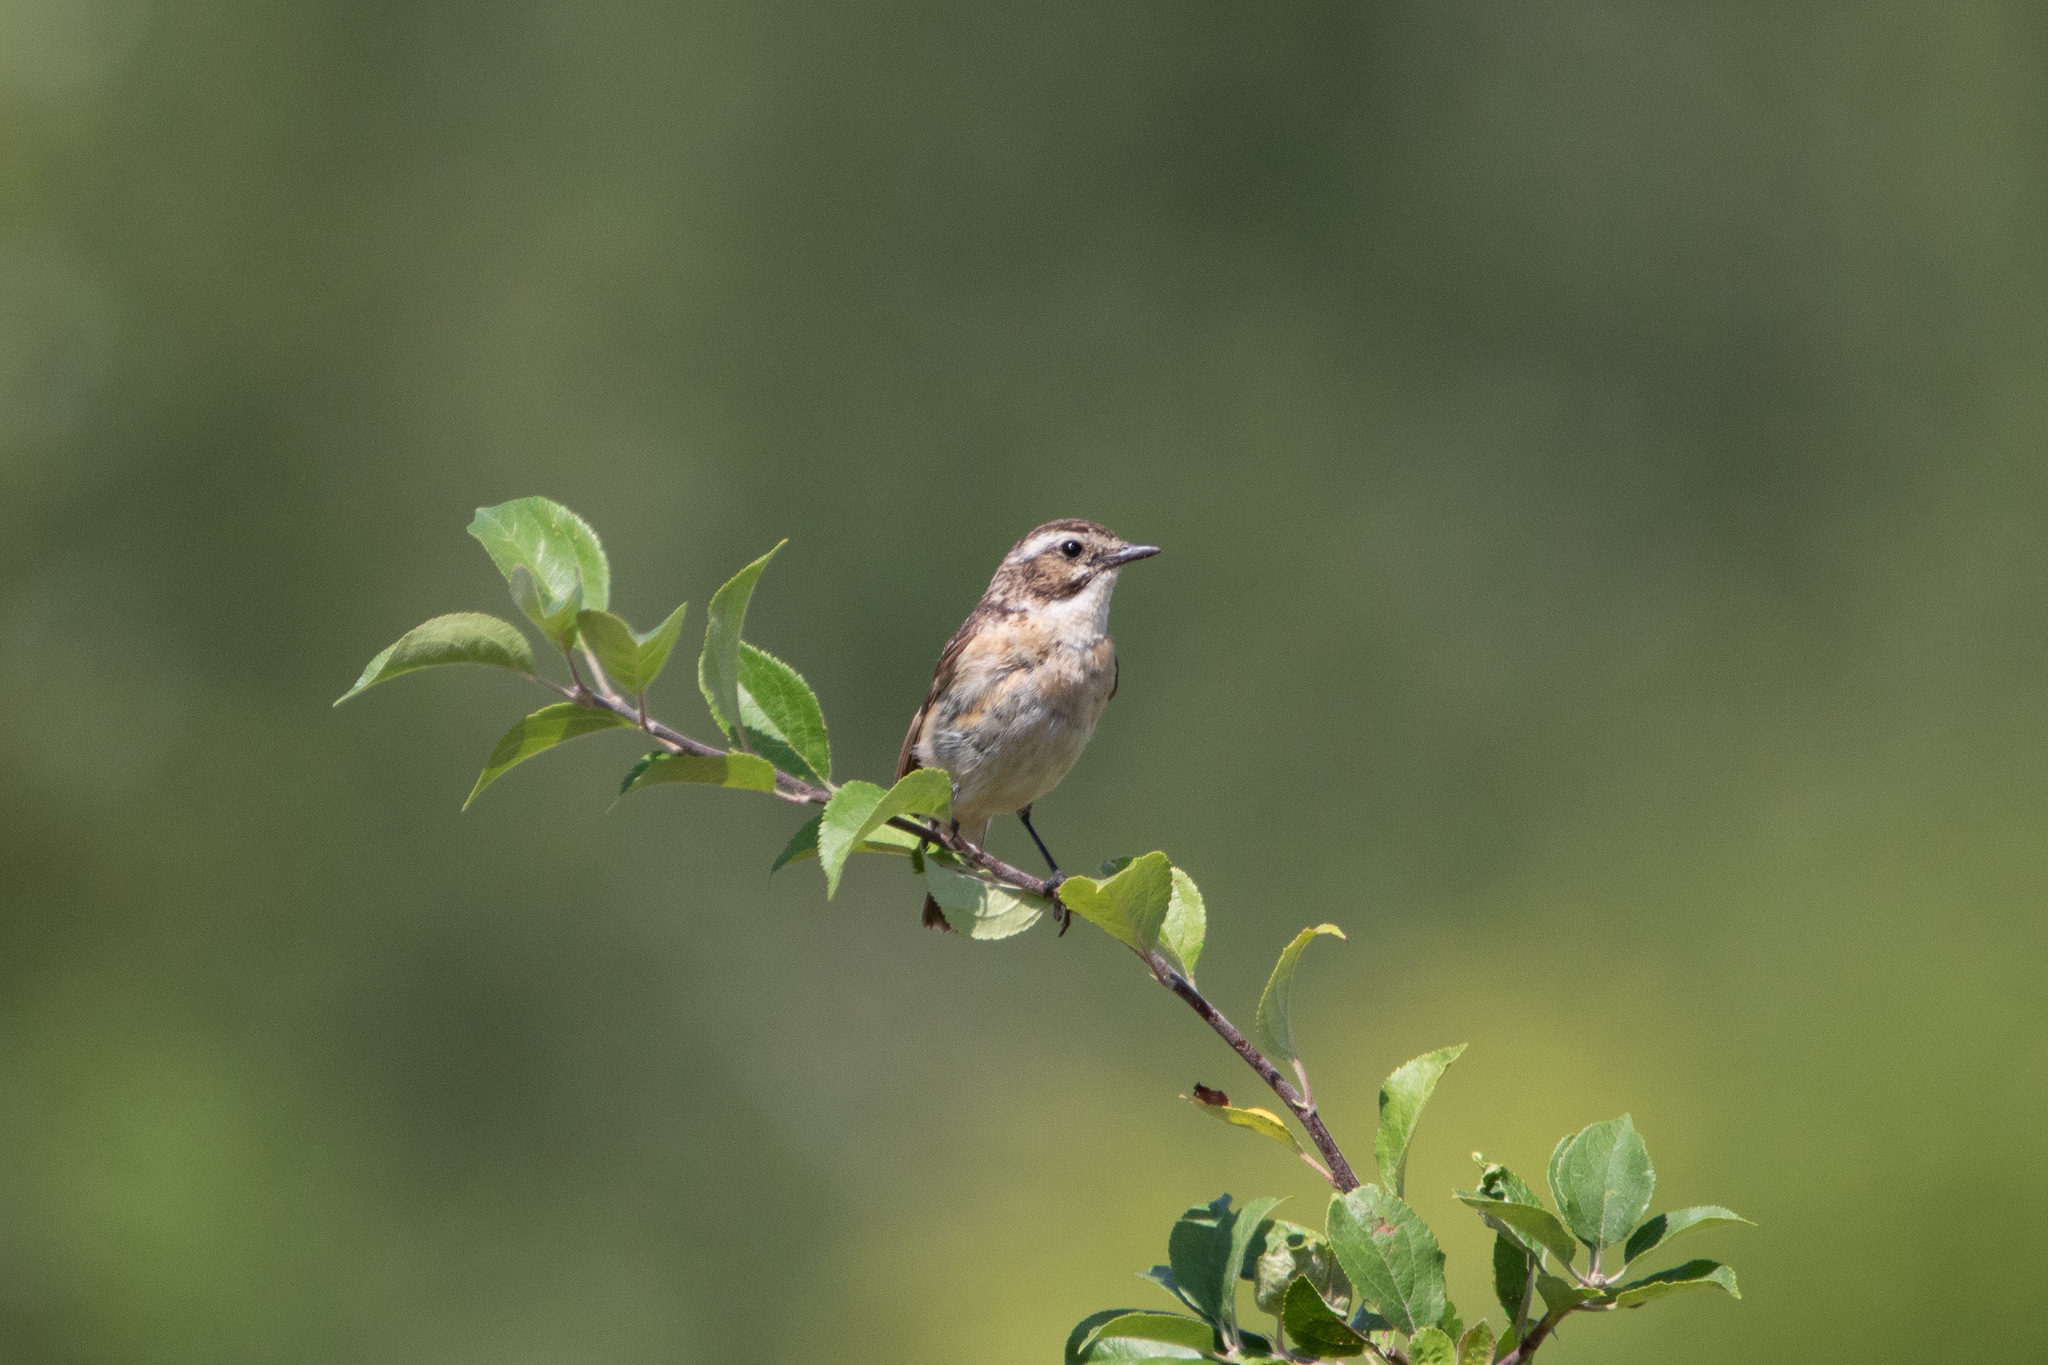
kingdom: Animalia
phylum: Chordata
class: Aves
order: Passeriformes
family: Muscicapidae
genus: Saxicola
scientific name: Saxicola rubetra
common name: Whinchat
